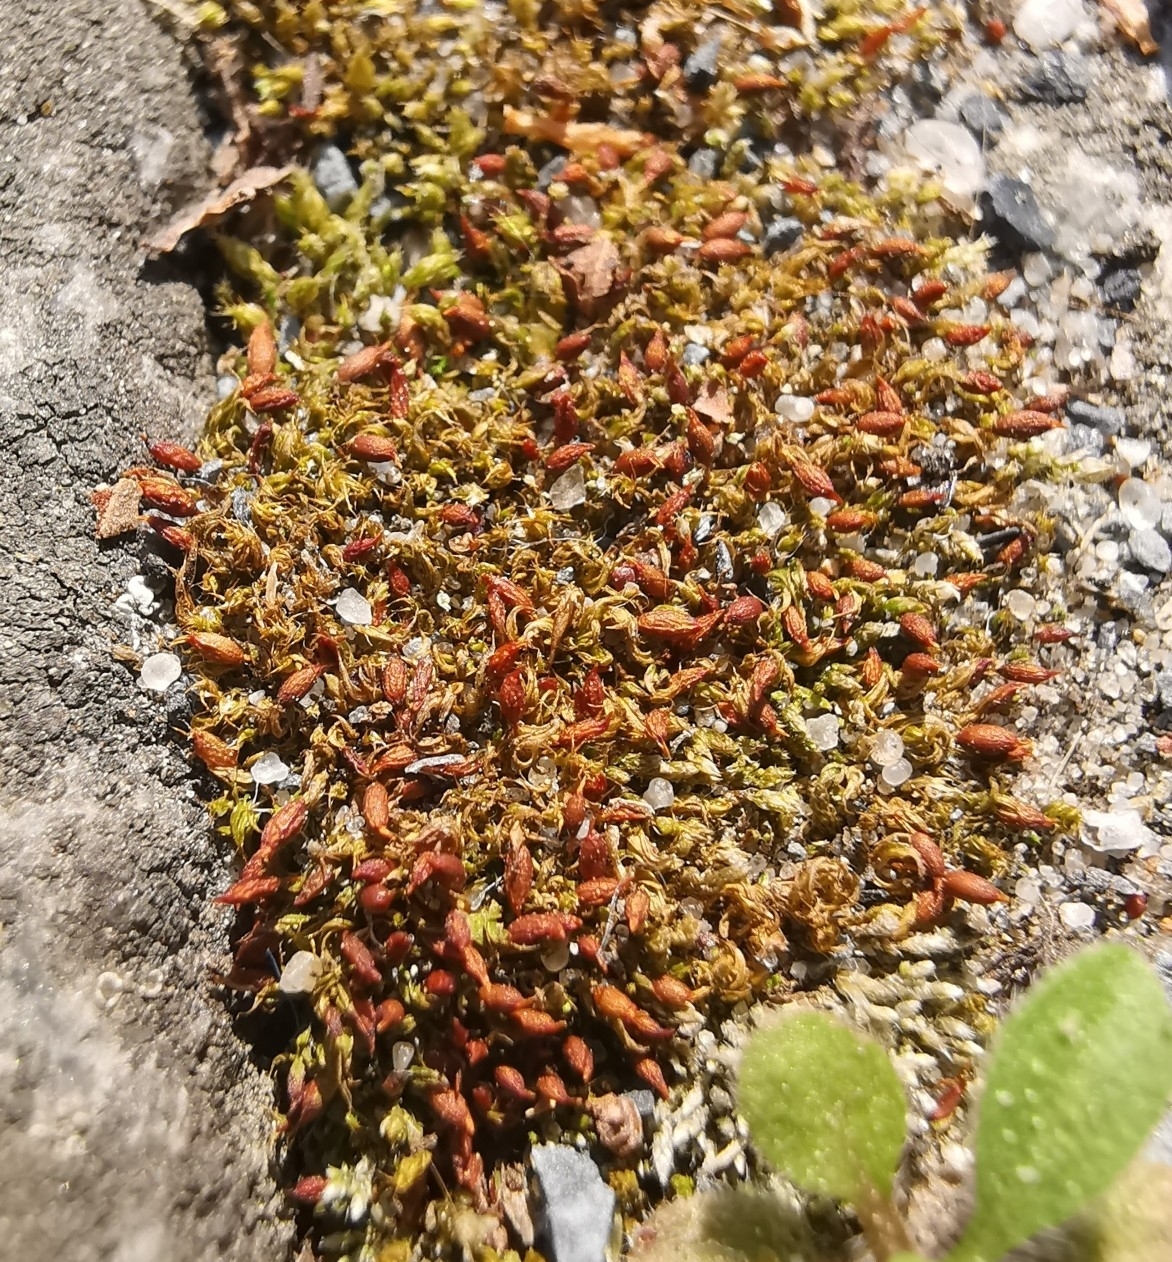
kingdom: Plantae
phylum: Bryophyta
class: Bryopsida
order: Pottiales
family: Pottiaceae
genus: Tortula
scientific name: Tortula protobryoides
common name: Tall pottia
